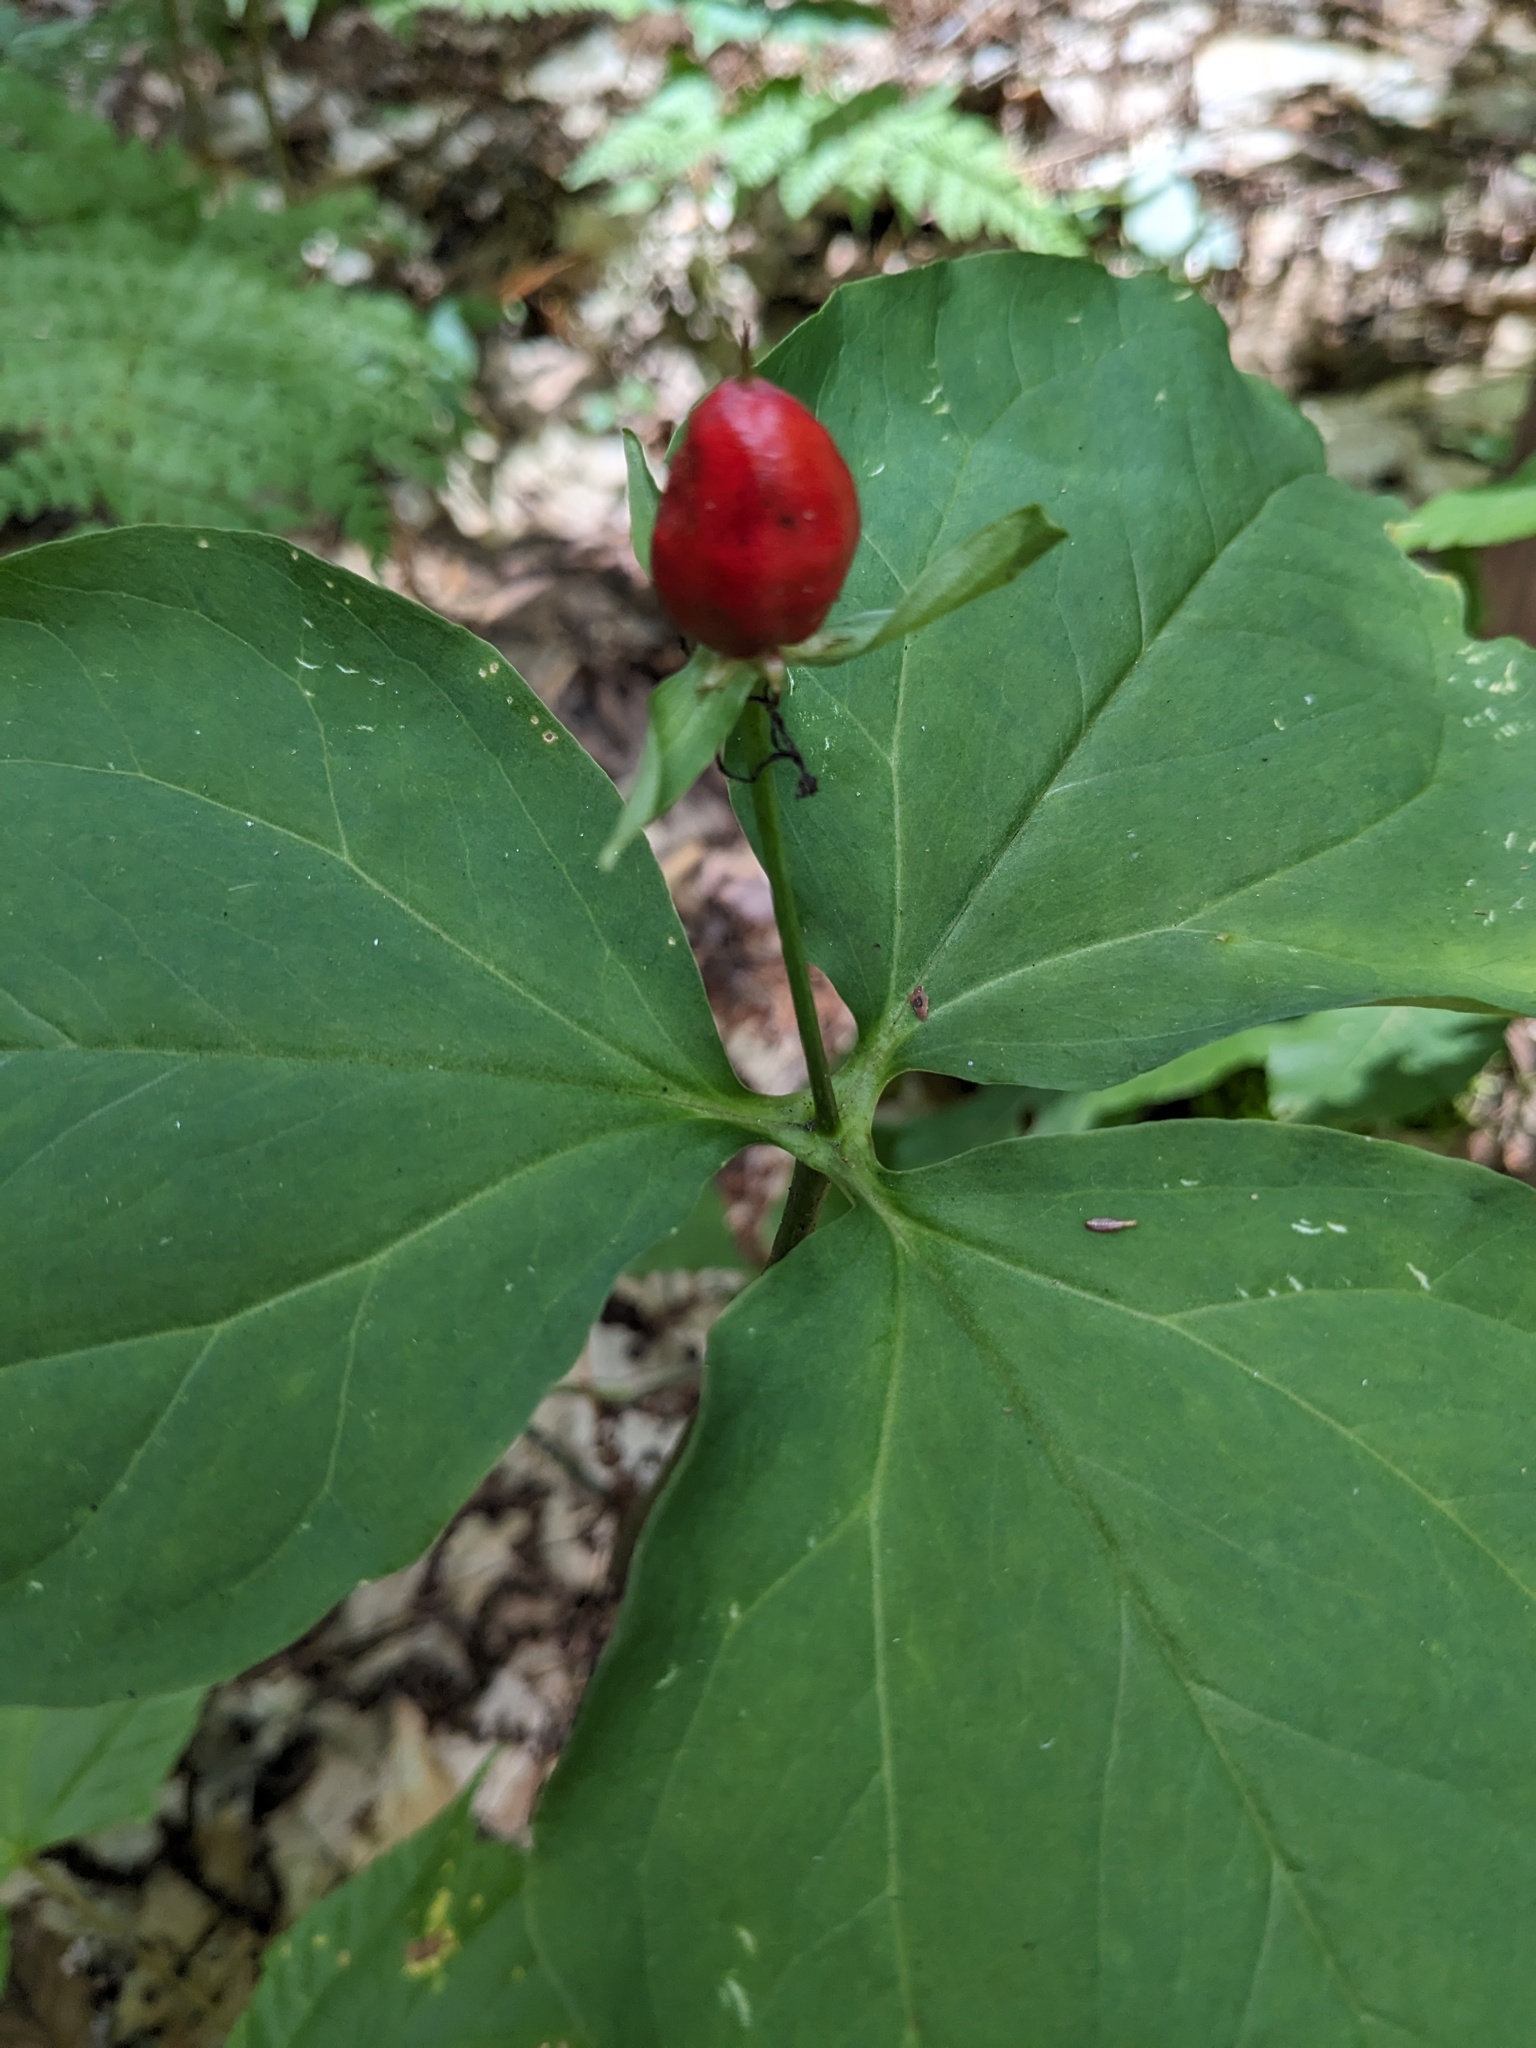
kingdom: Plantae
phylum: Tracheophyta
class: Liliopsida
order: Liliales
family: Melanthiaceae
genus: Trillium
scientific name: Trillium undulatum
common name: Paint trillium
